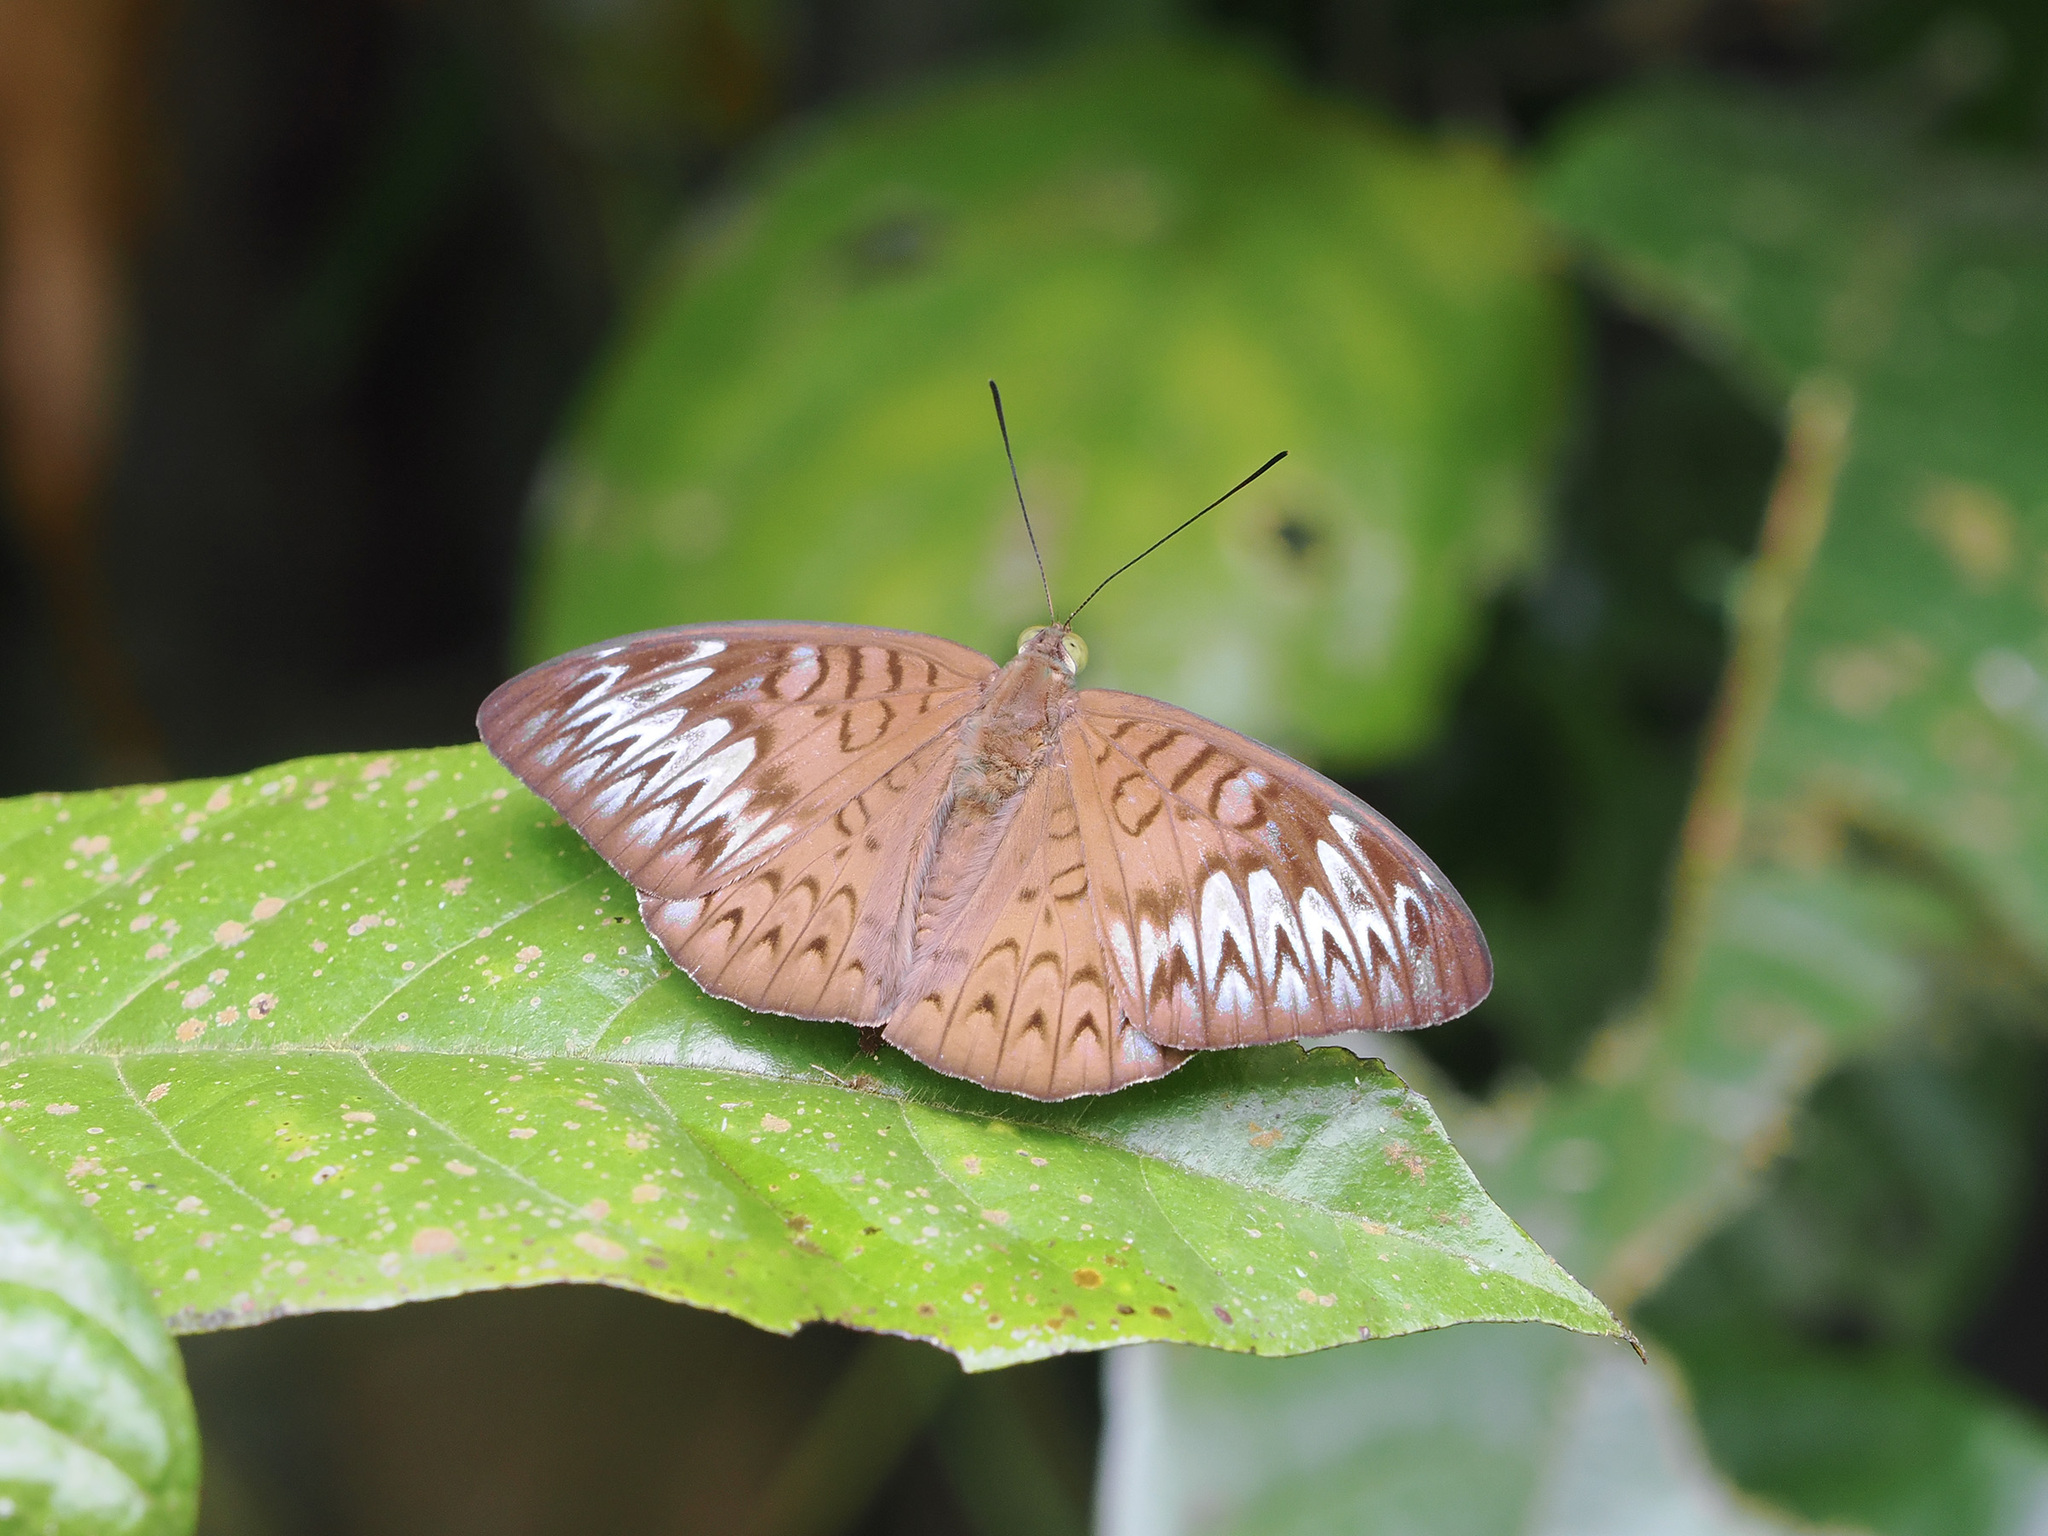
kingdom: Animalia
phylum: Arthropoda
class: Insecta
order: Lepidoptera
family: Nymphalidae
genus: Tanaecia
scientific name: Tanaecia pelea
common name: Malay viscount
